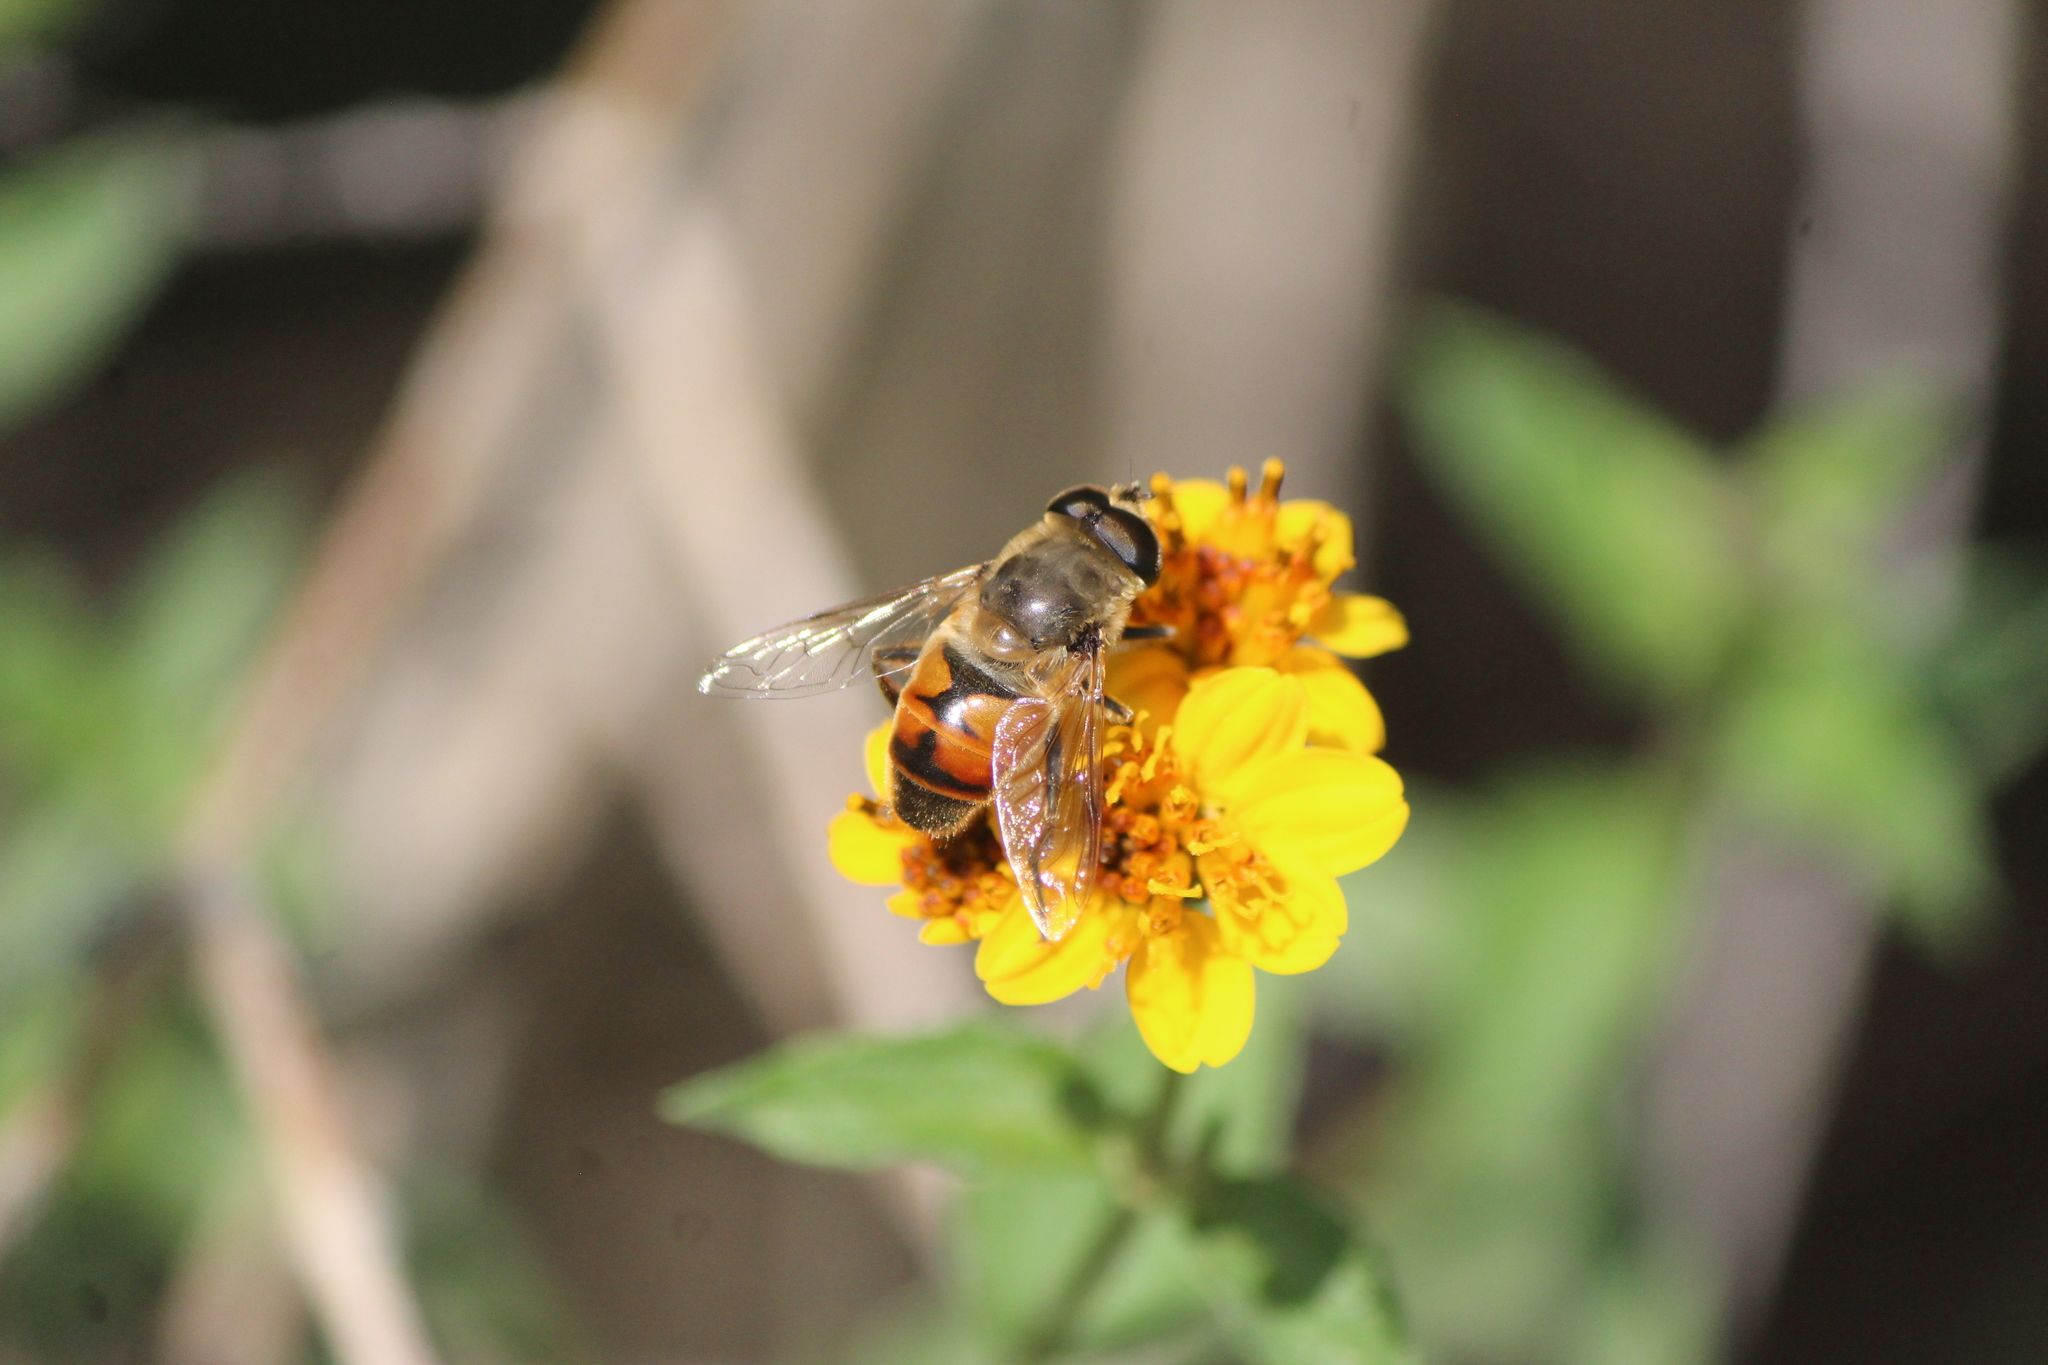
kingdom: Animalia
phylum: Arthropoda
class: Insecta
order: Diptera
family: Syrphidae
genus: Eristalis
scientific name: Eristalis tenax
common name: Drone fly
